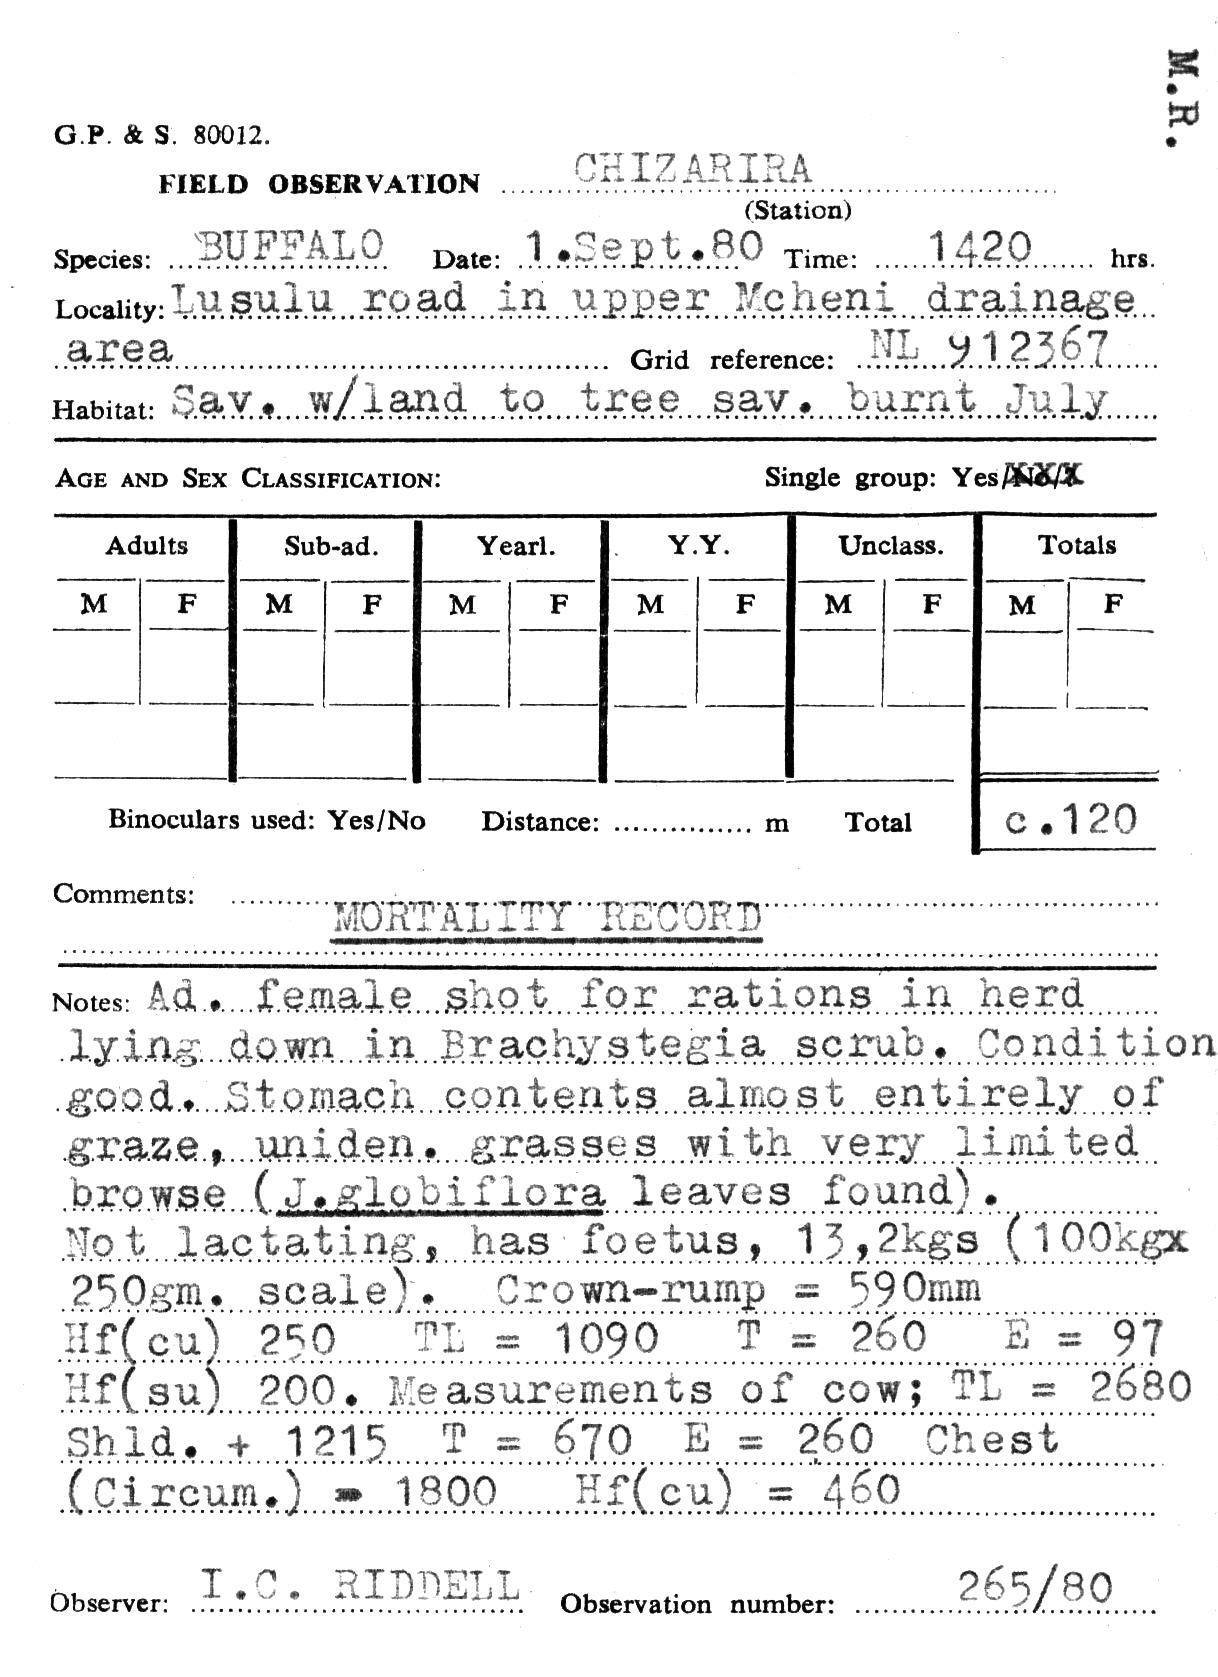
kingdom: Animalia
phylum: Chordata
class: Mammalia
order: Artiodactyla
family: Bovidae
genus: Syncerus
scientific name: Syncerus caffer
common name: African buffalo
